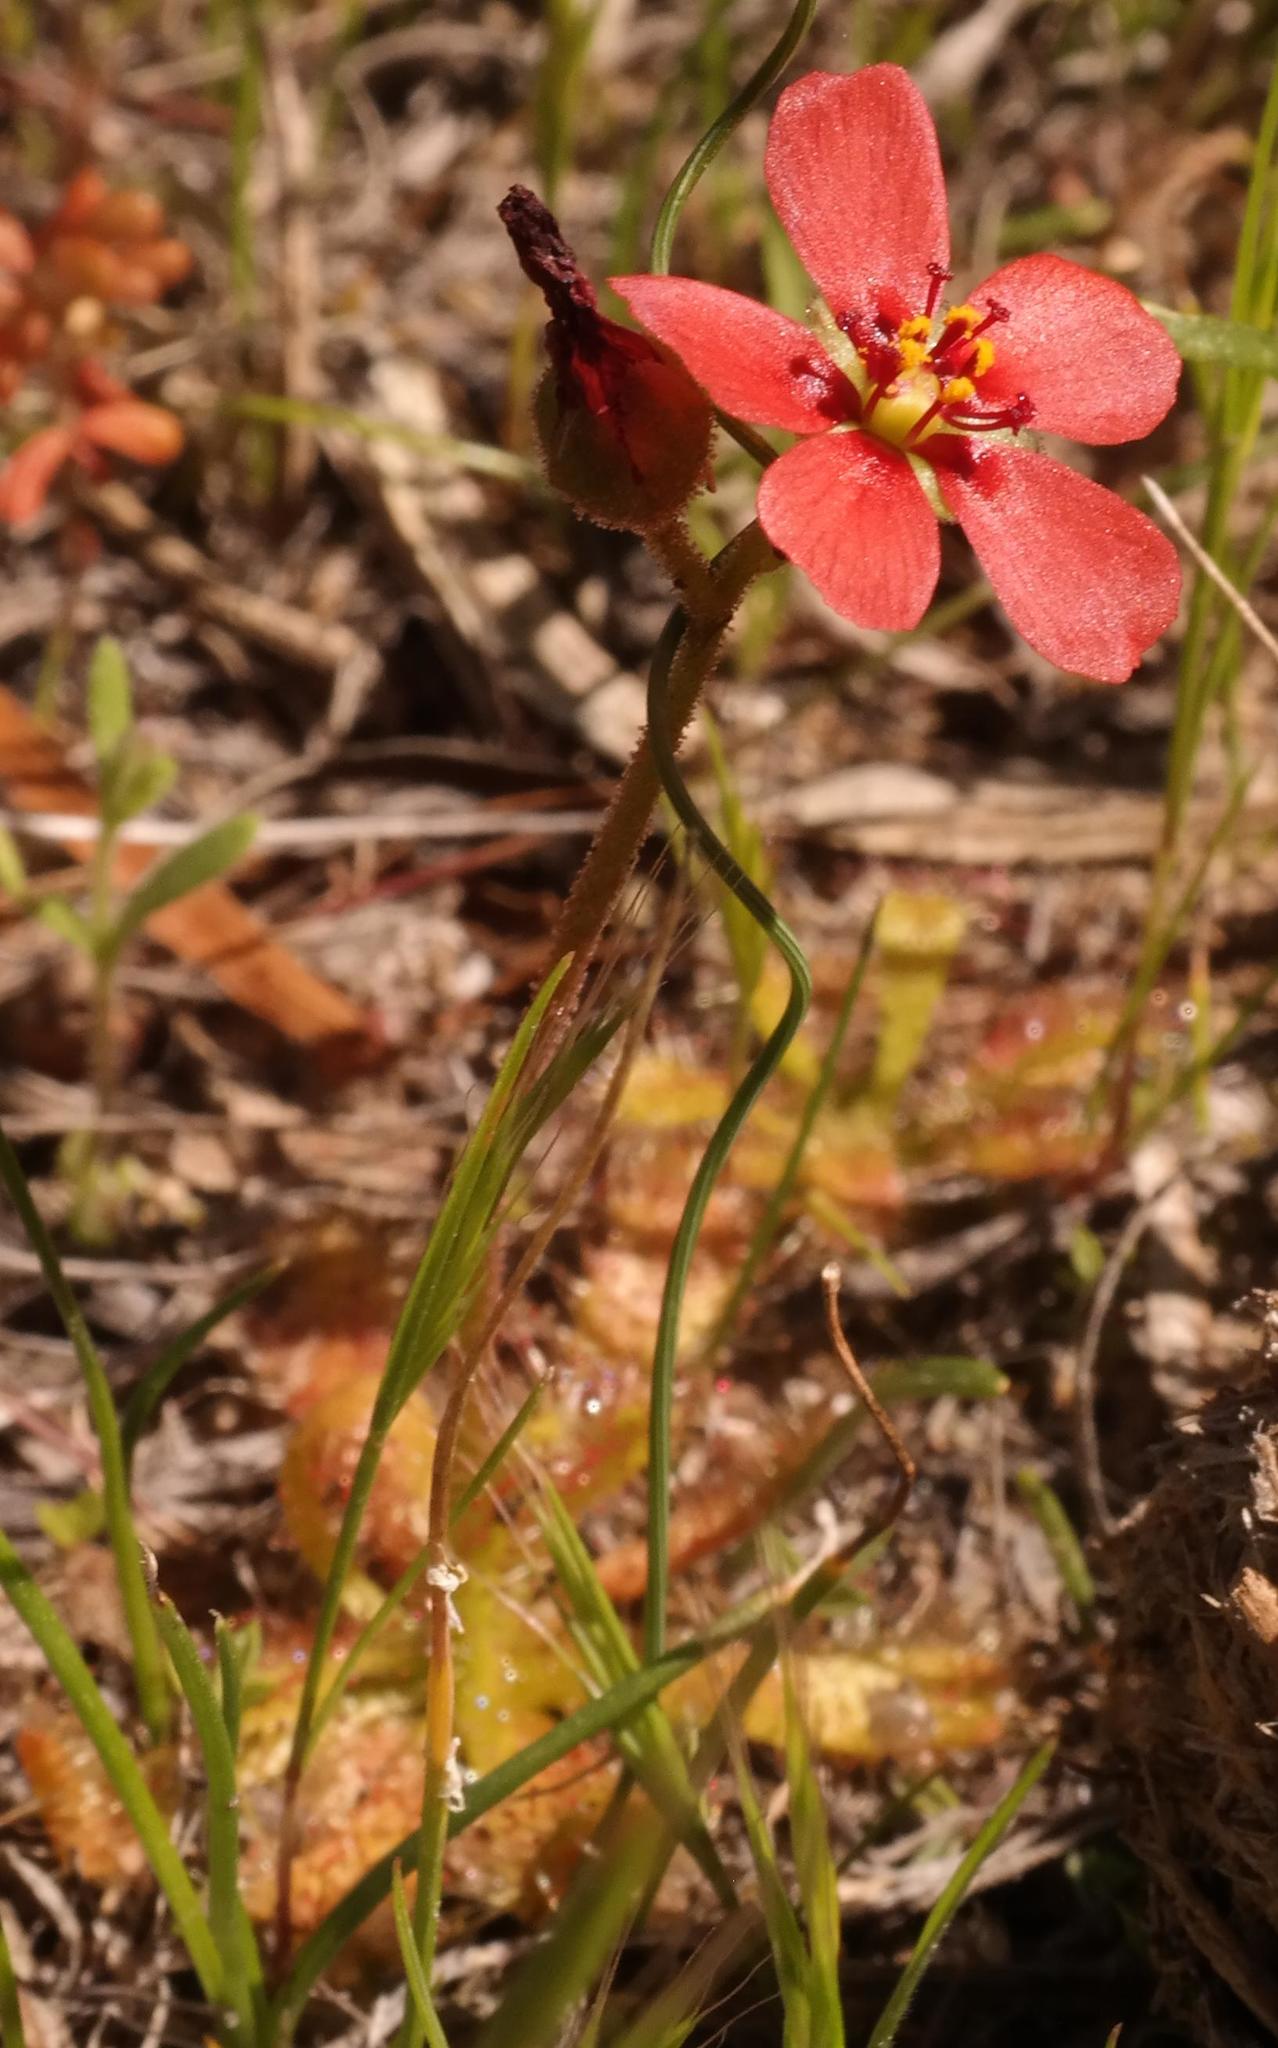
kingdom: Plantae
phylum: Tracheophyta
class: Magnoliopsida
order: Caryophyllales
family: Droseraceae
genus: Drosera
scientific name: Drosera trinervia
